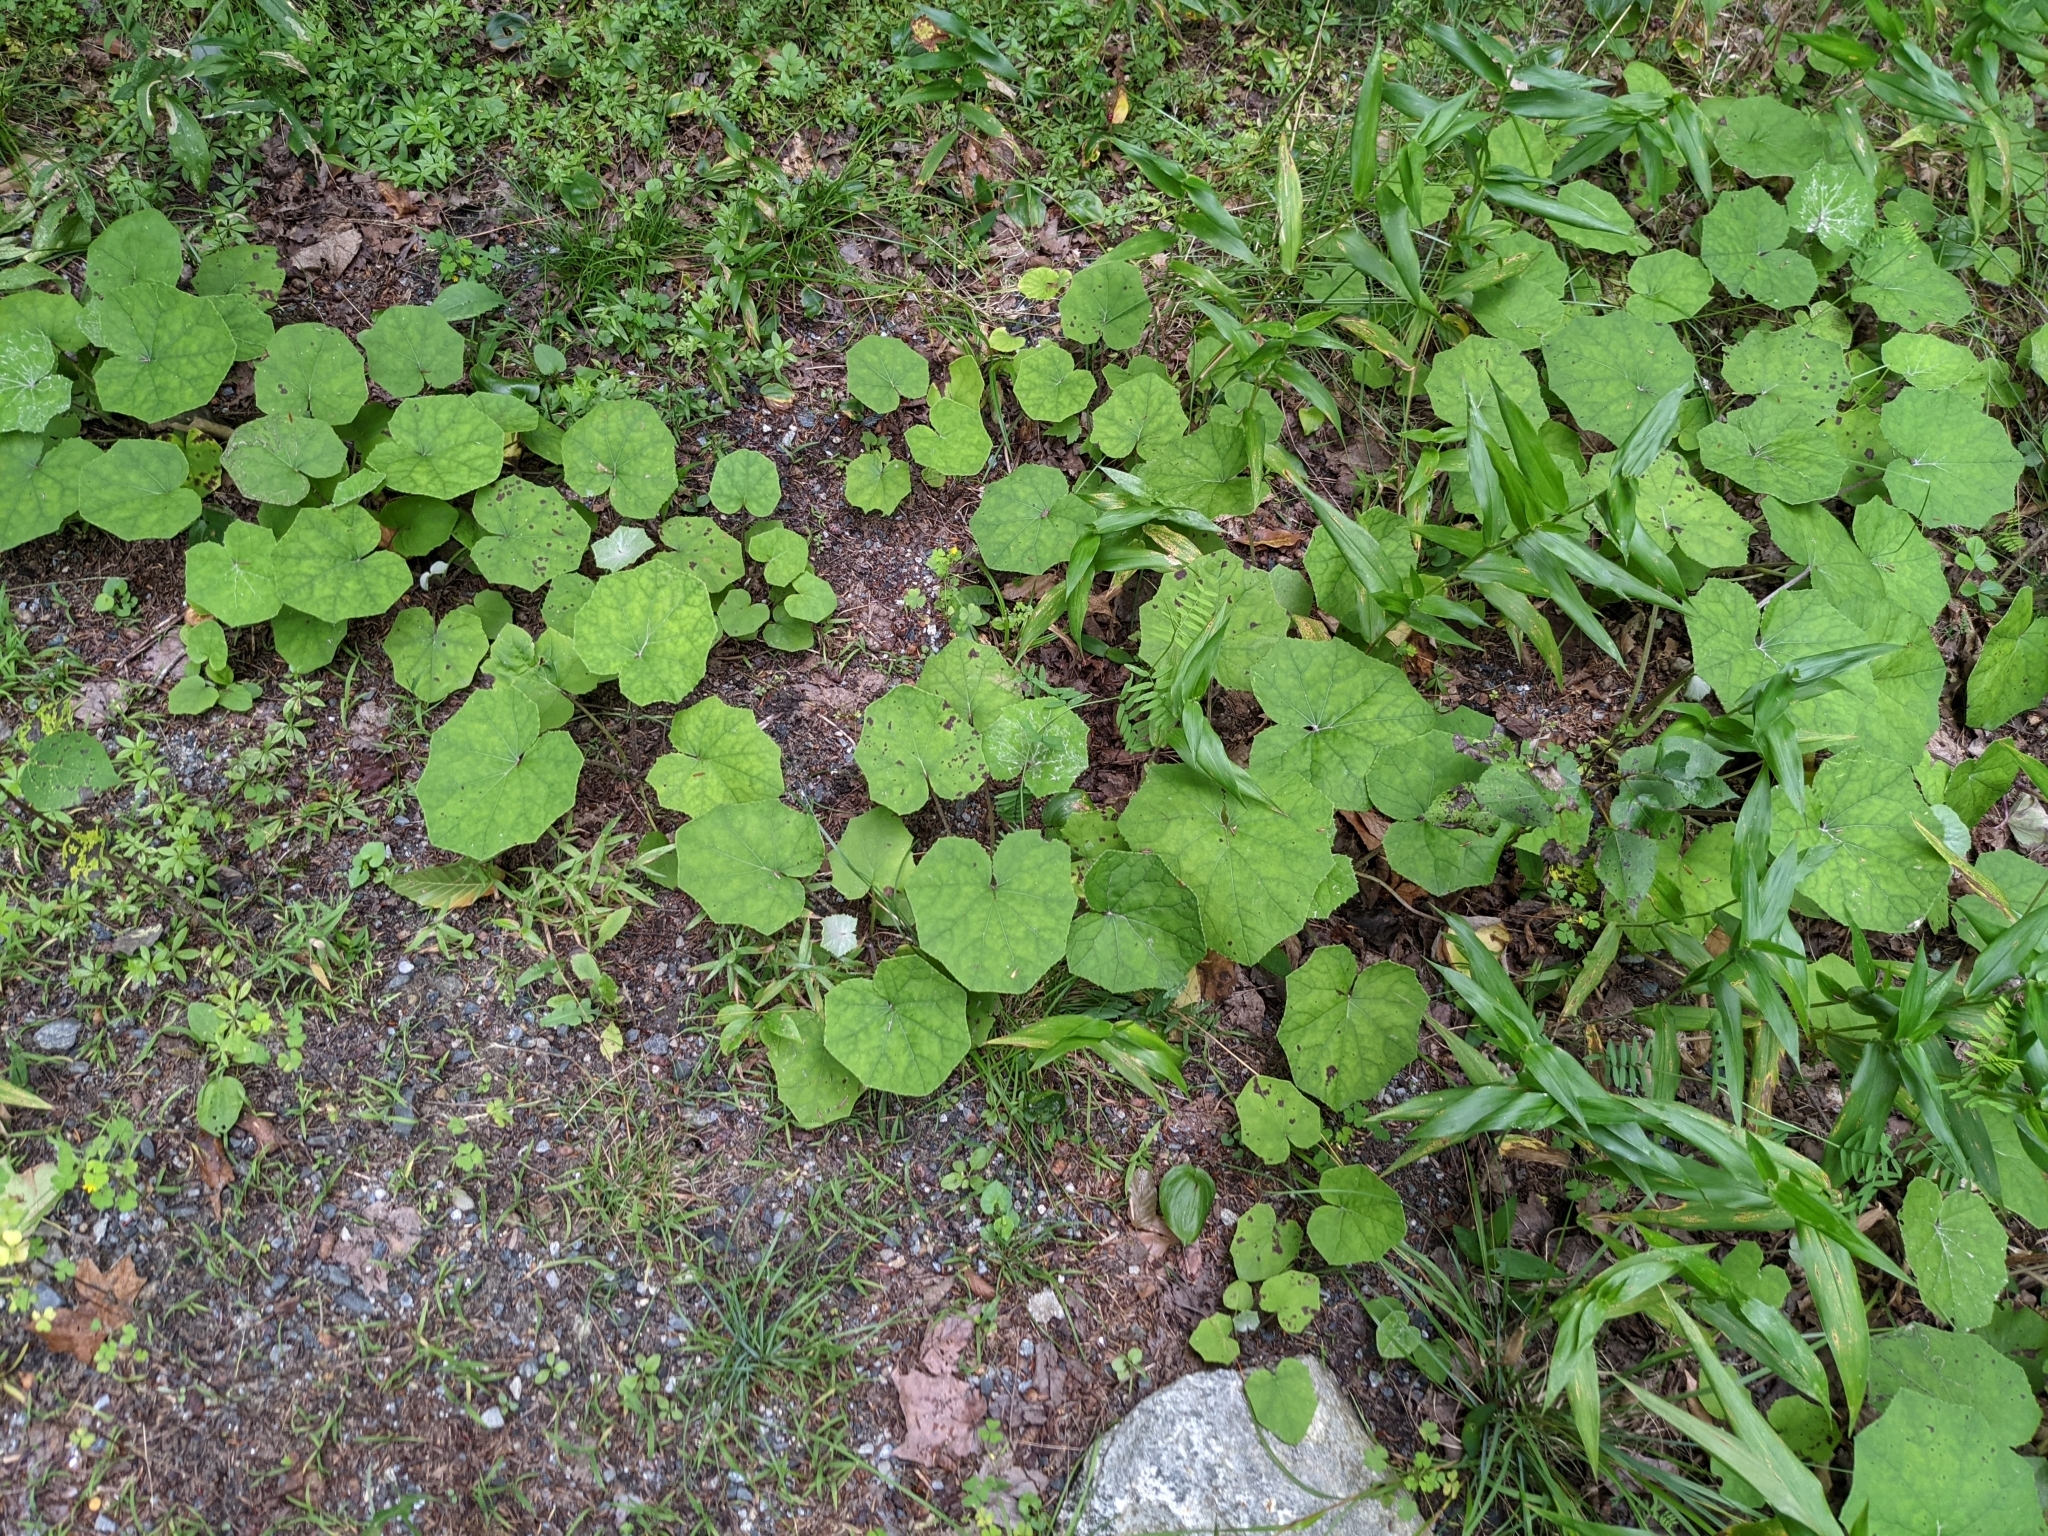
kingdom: Plantae
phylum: Tracheophyta
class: Magnoliopsida
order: Asterales
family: Asteraceae
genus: Tussilago
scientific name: Tussilago farfara
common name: Coltsfoot
